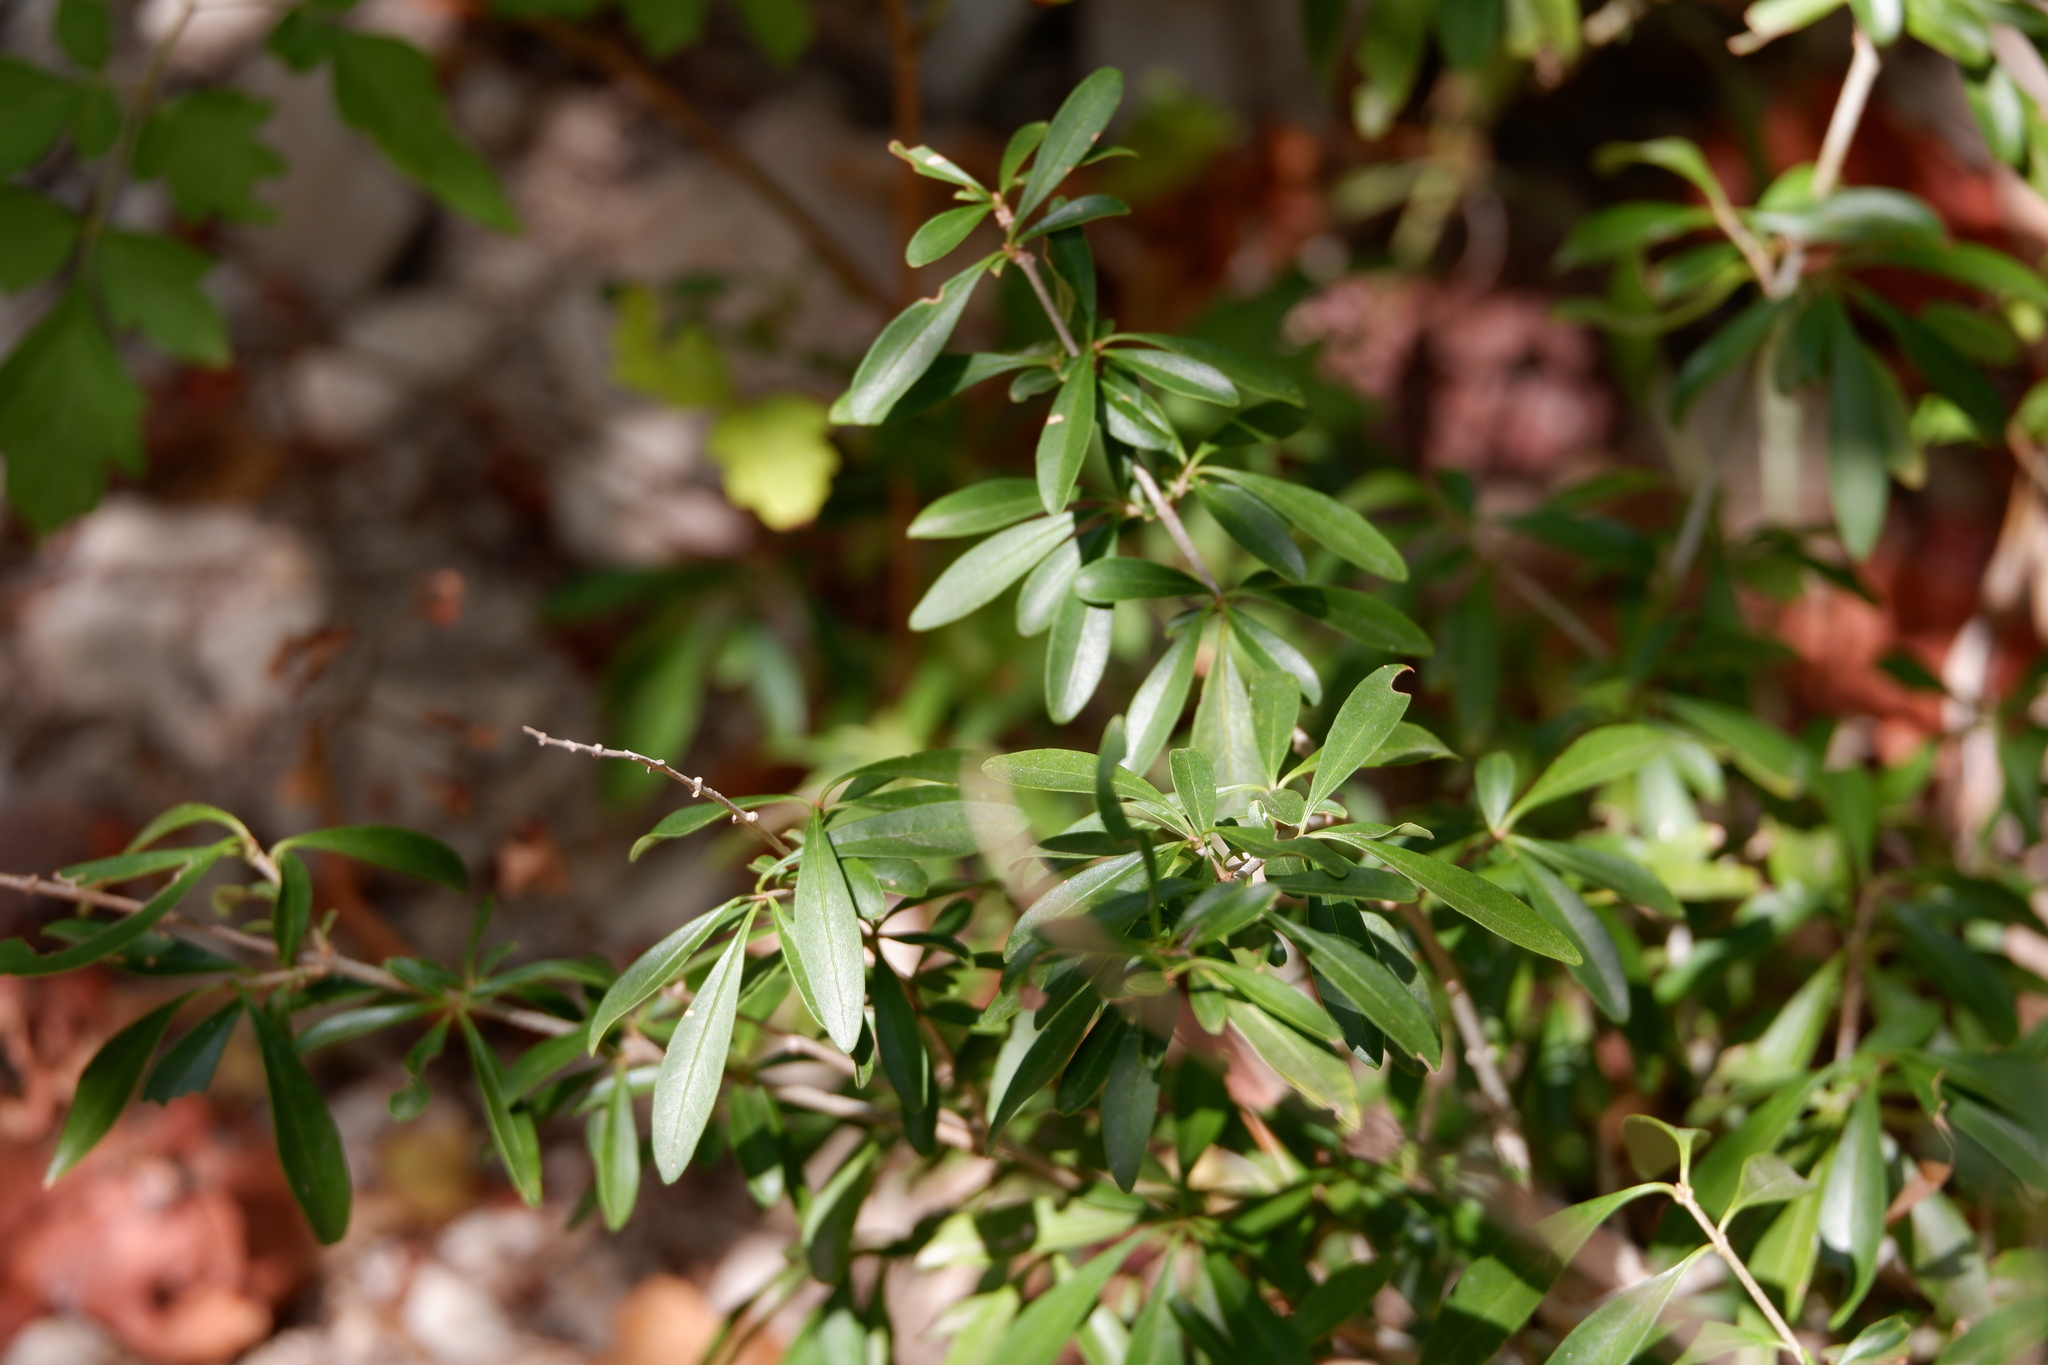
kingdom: Plantae
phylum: Tracheophyta
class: Magnoliopsida
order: Lamiales
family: Oleaceae
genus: Ligustrum
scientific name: Ligustrum quihoui
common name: Waxyleaf privet
